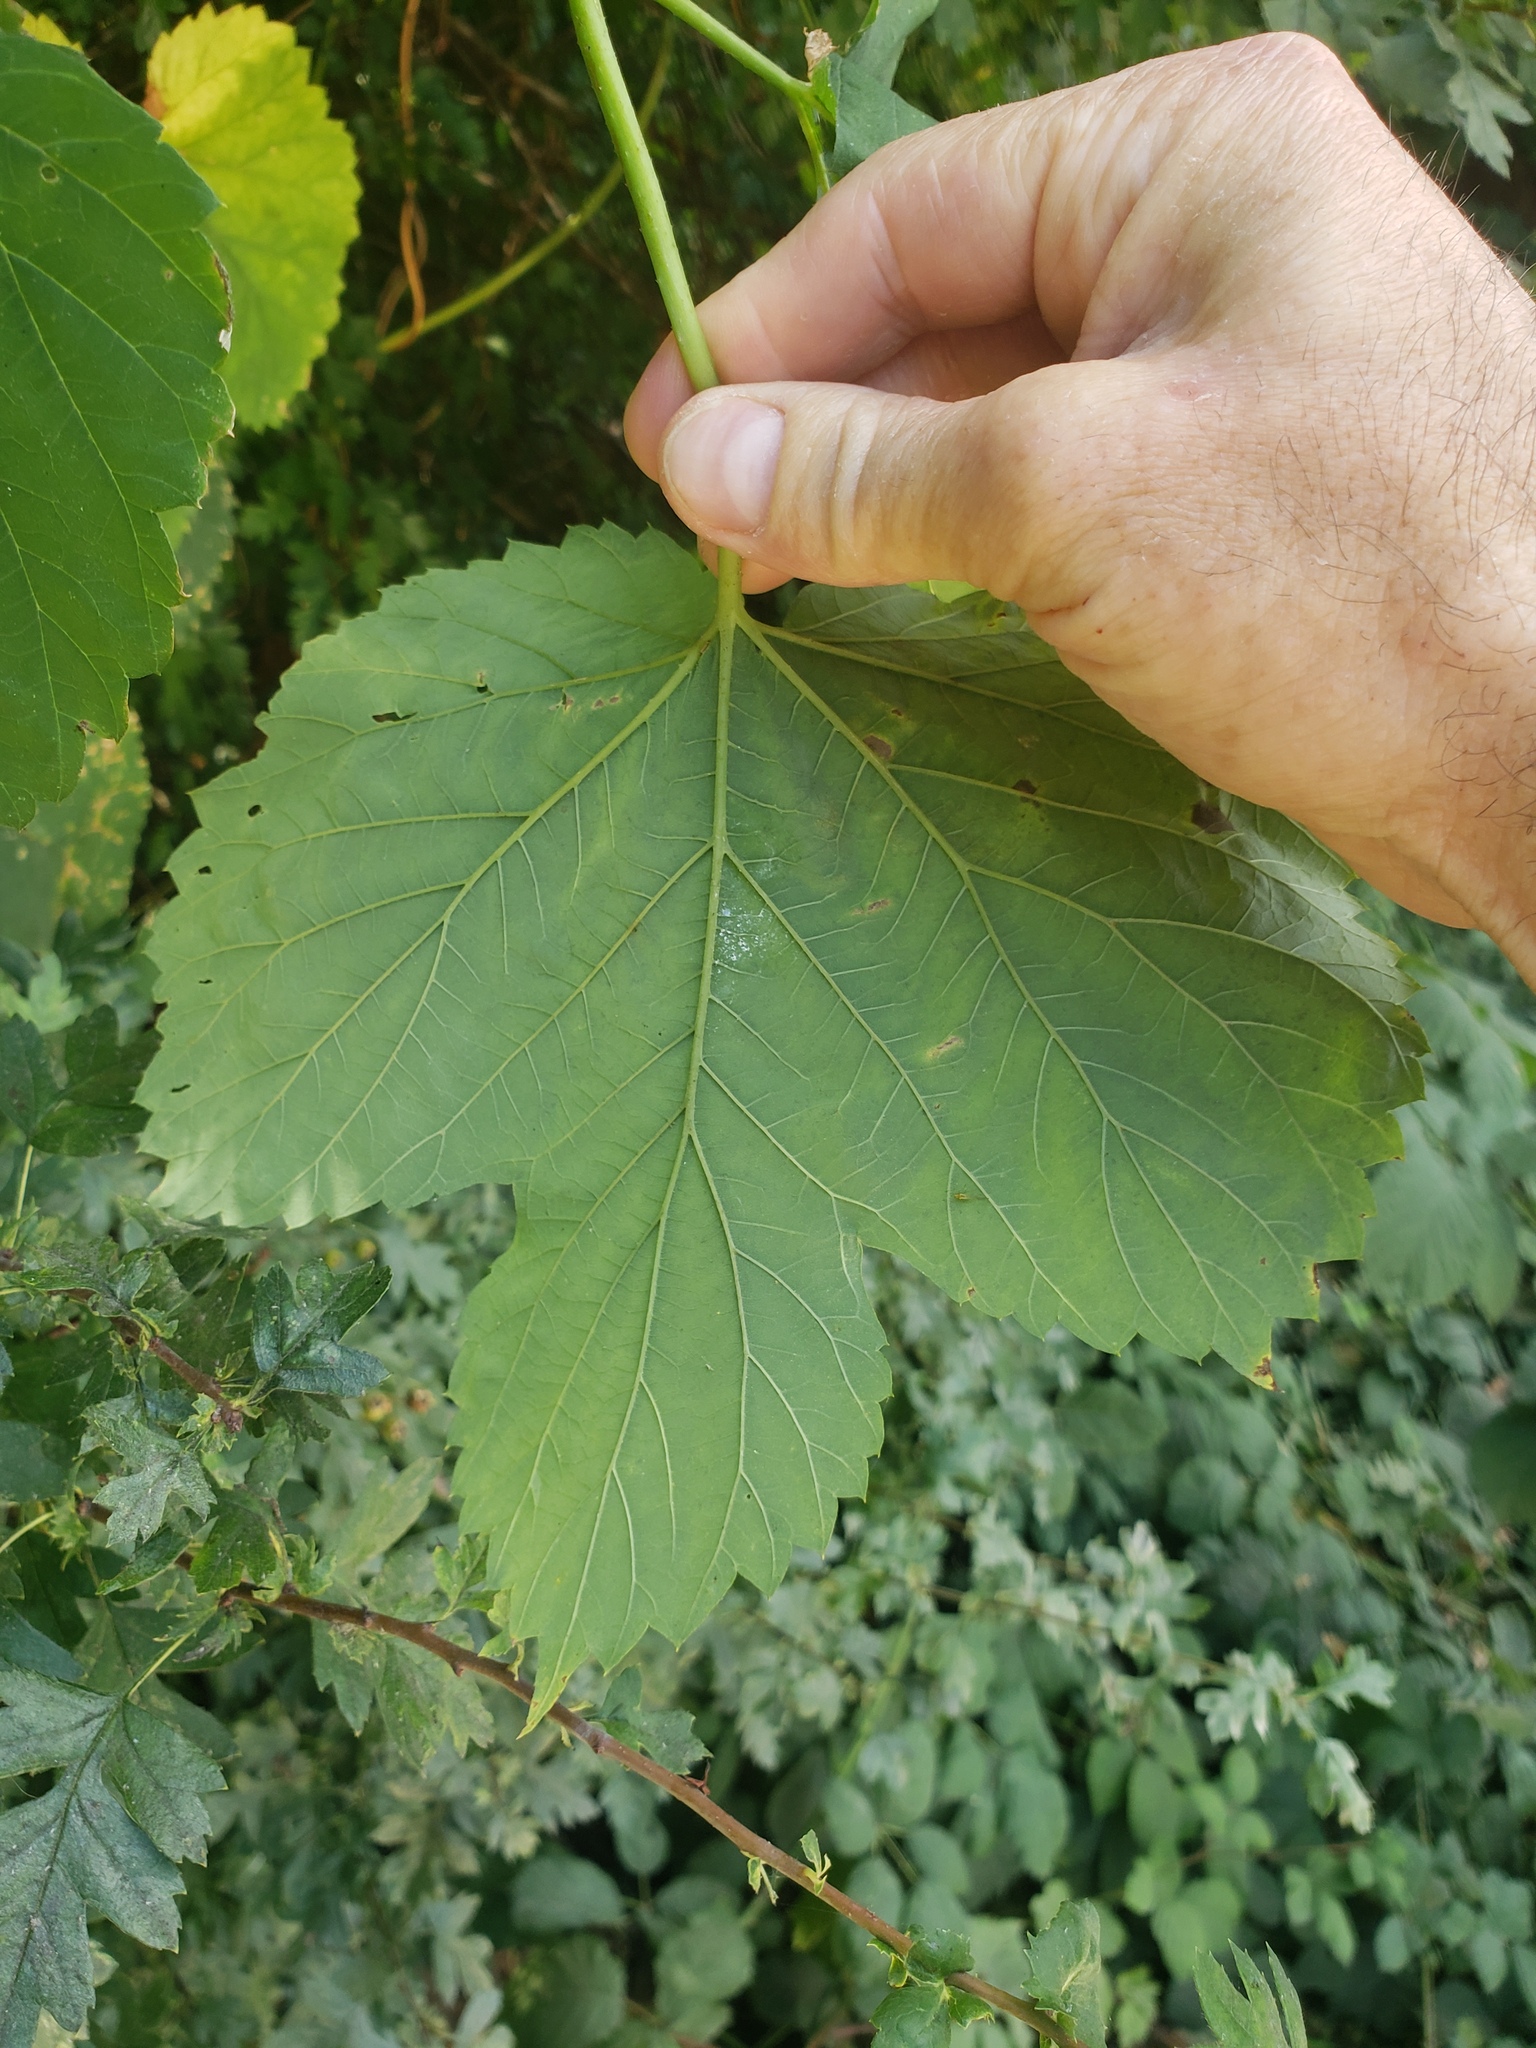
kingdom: Plantae
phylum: Tracheophyta
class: Magnoliopsida
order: Rosales
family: Cannabaceae
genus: Humulus
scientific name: Humulus lupulus
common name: Hop
